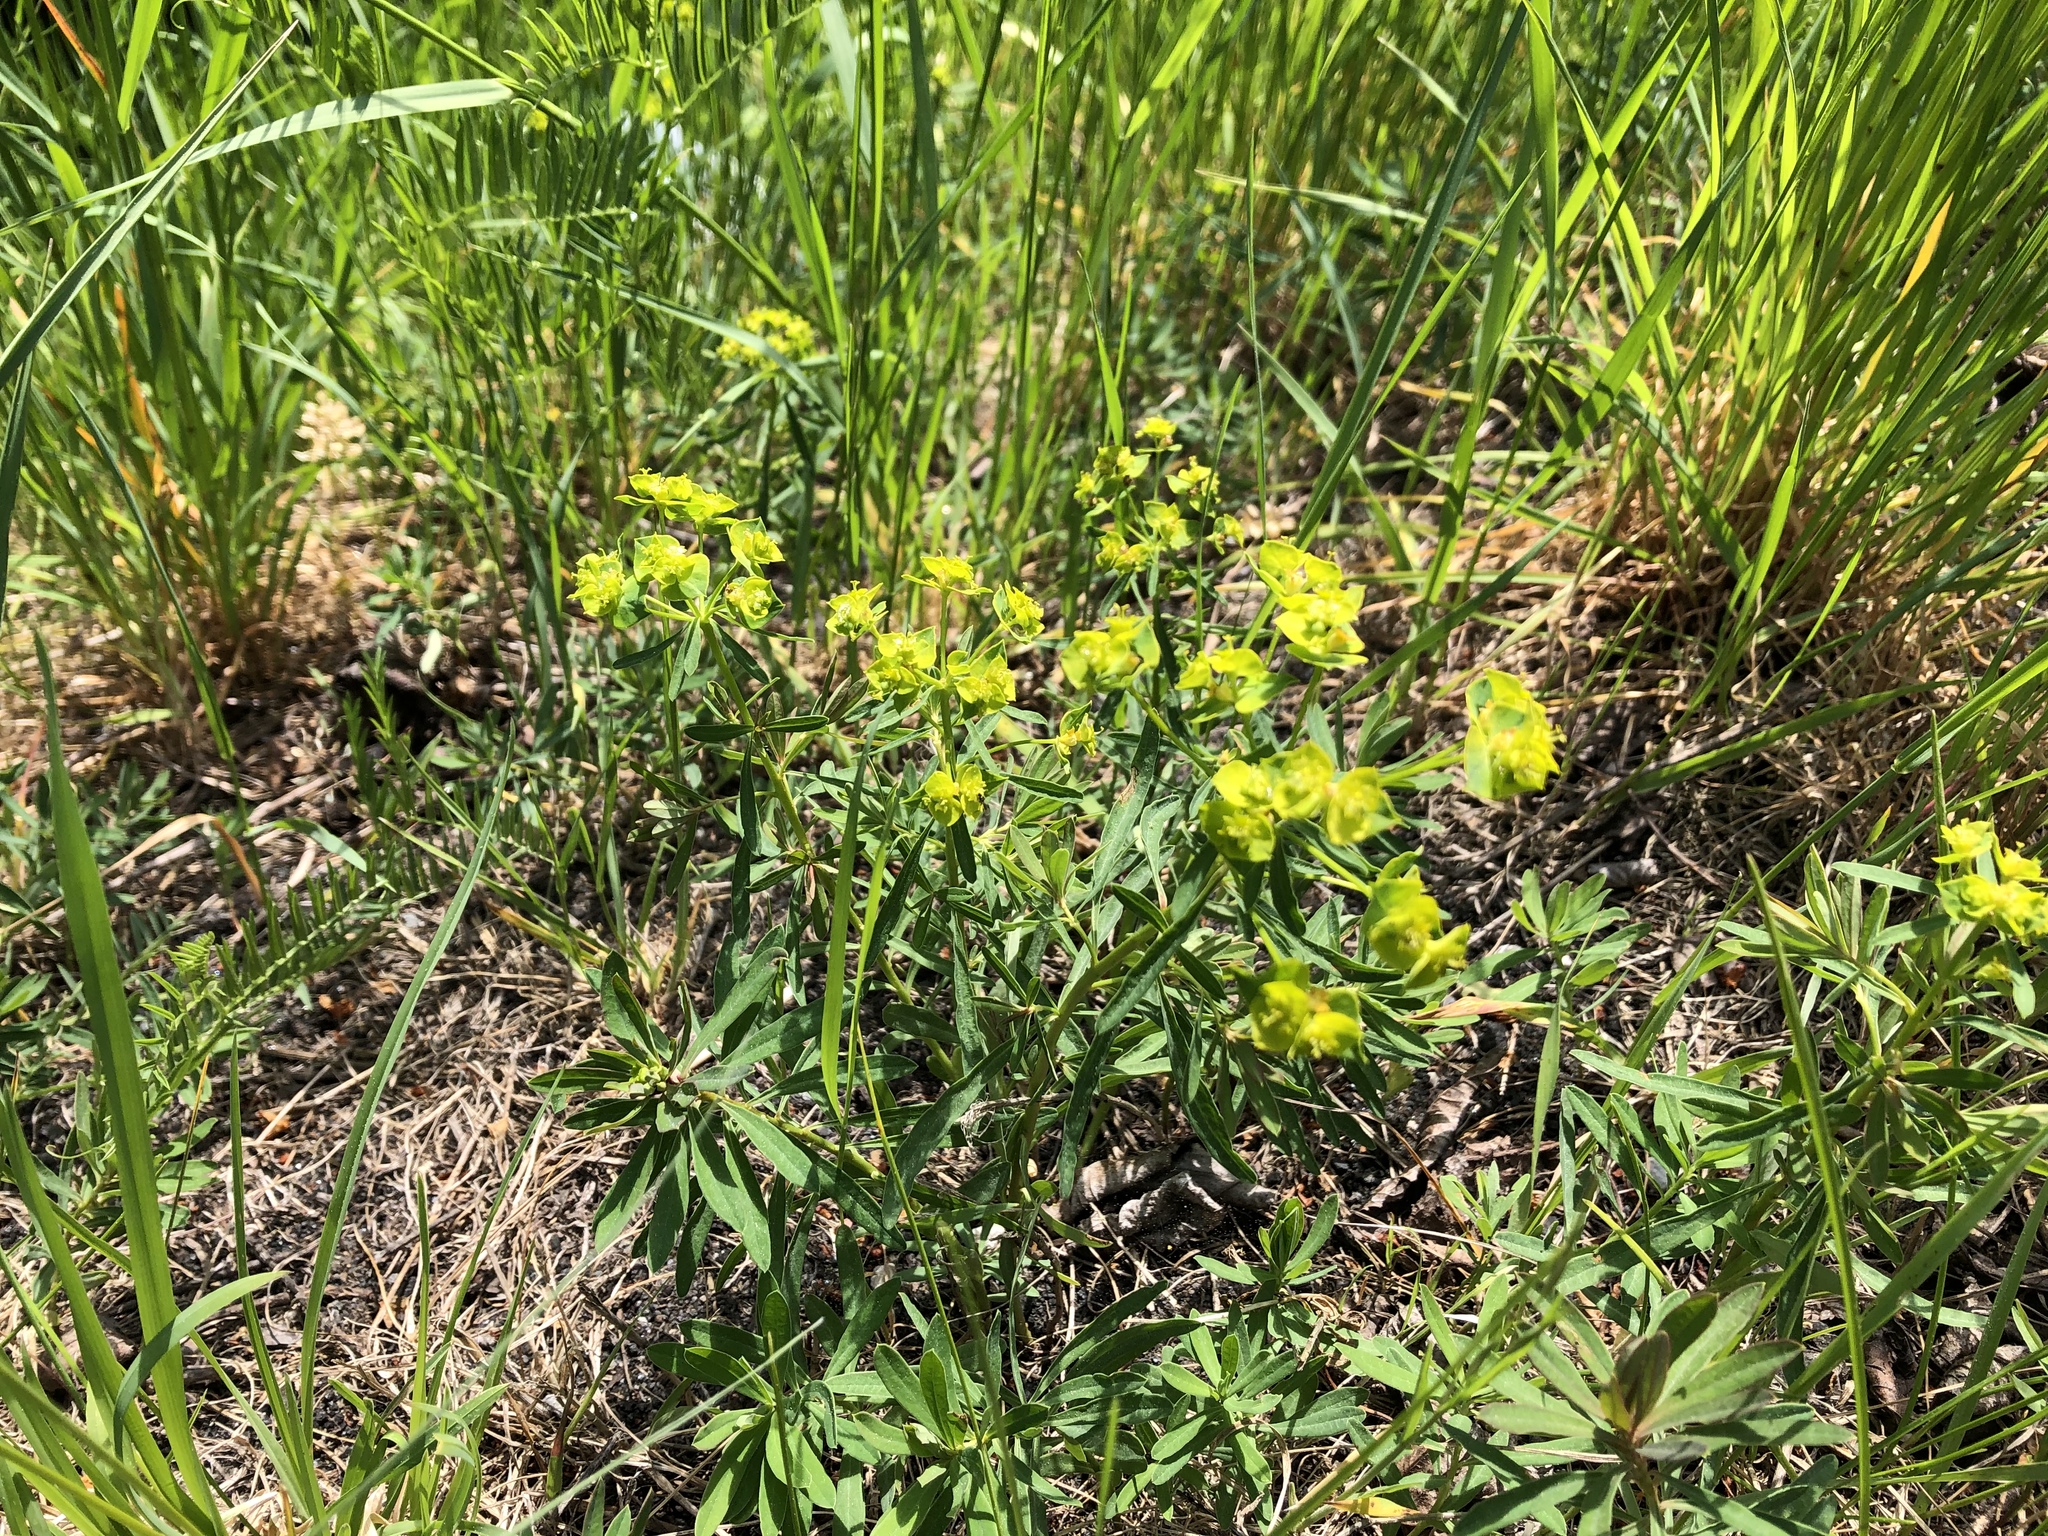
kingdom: Plantae
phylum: Tracheophyta
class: Magnoliopsida
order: Malpighiales
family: Euphorbiaceae
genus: Euphorbia
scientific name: Euphorbia esula
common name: Leafy spurge
